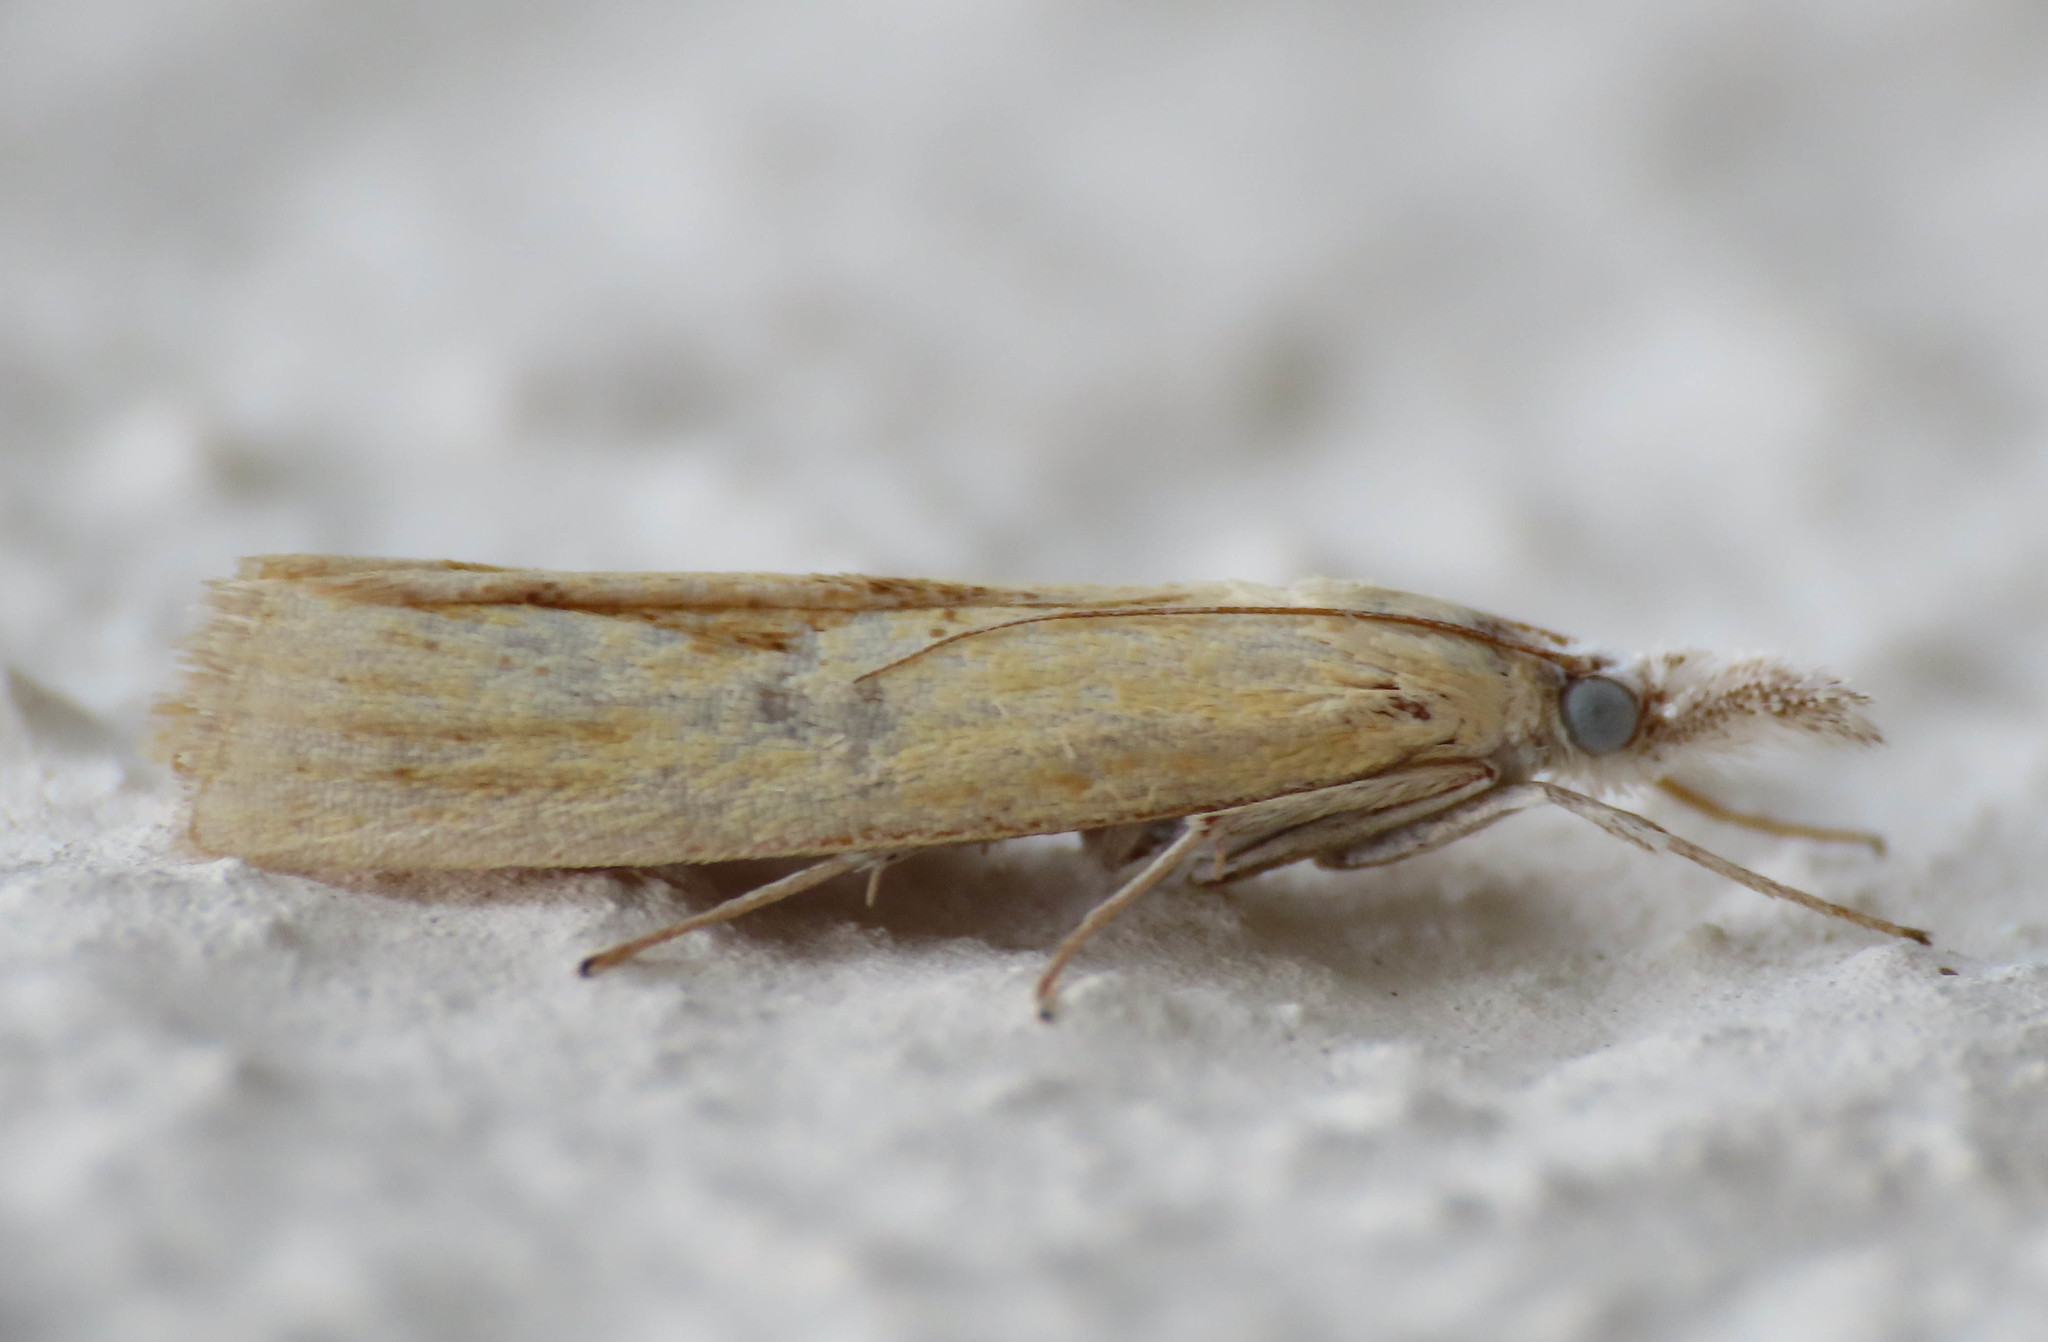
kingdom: Animalia
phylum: Arthropoda
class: Insecta
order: Lepidoptera
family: Crambidae
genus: Agriphila
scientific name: Agriphila tristellus
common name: Common grass-veneer
